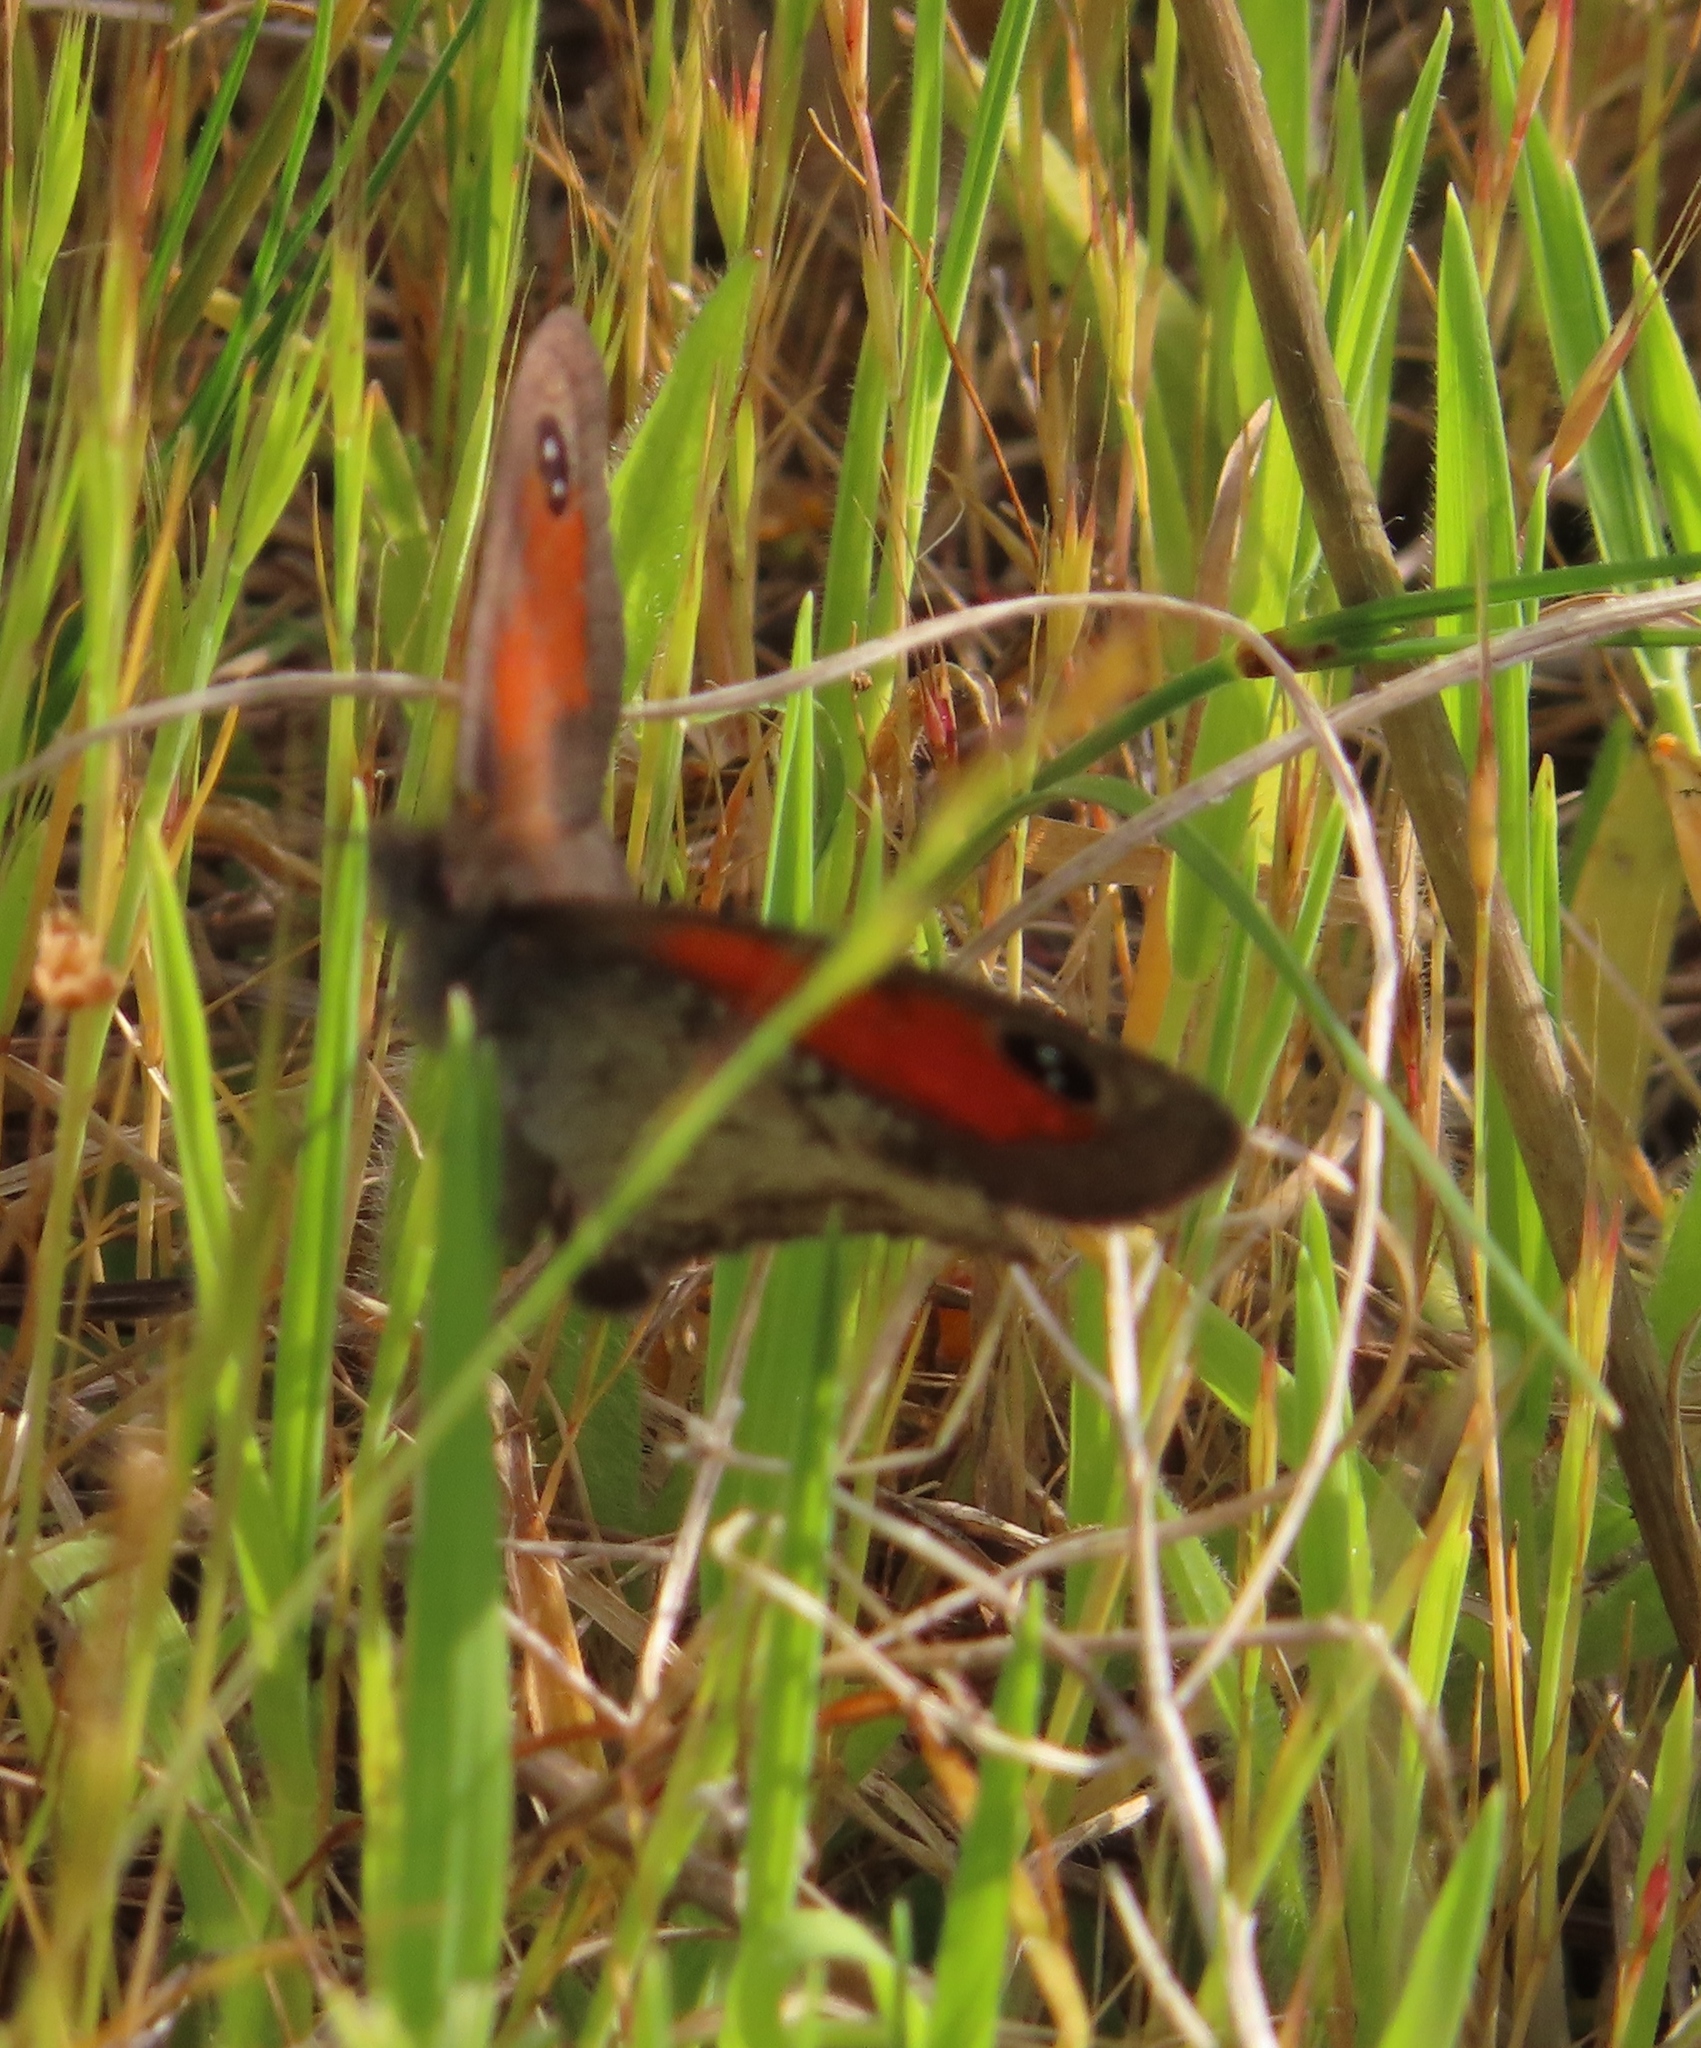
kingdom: Animalia
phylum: Arthropoda
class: Insecta
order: Lepidoptera
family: Nymphalidae
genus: Pseudonympha
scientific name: Pseudonympha magus
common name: Silver-bottom brown
